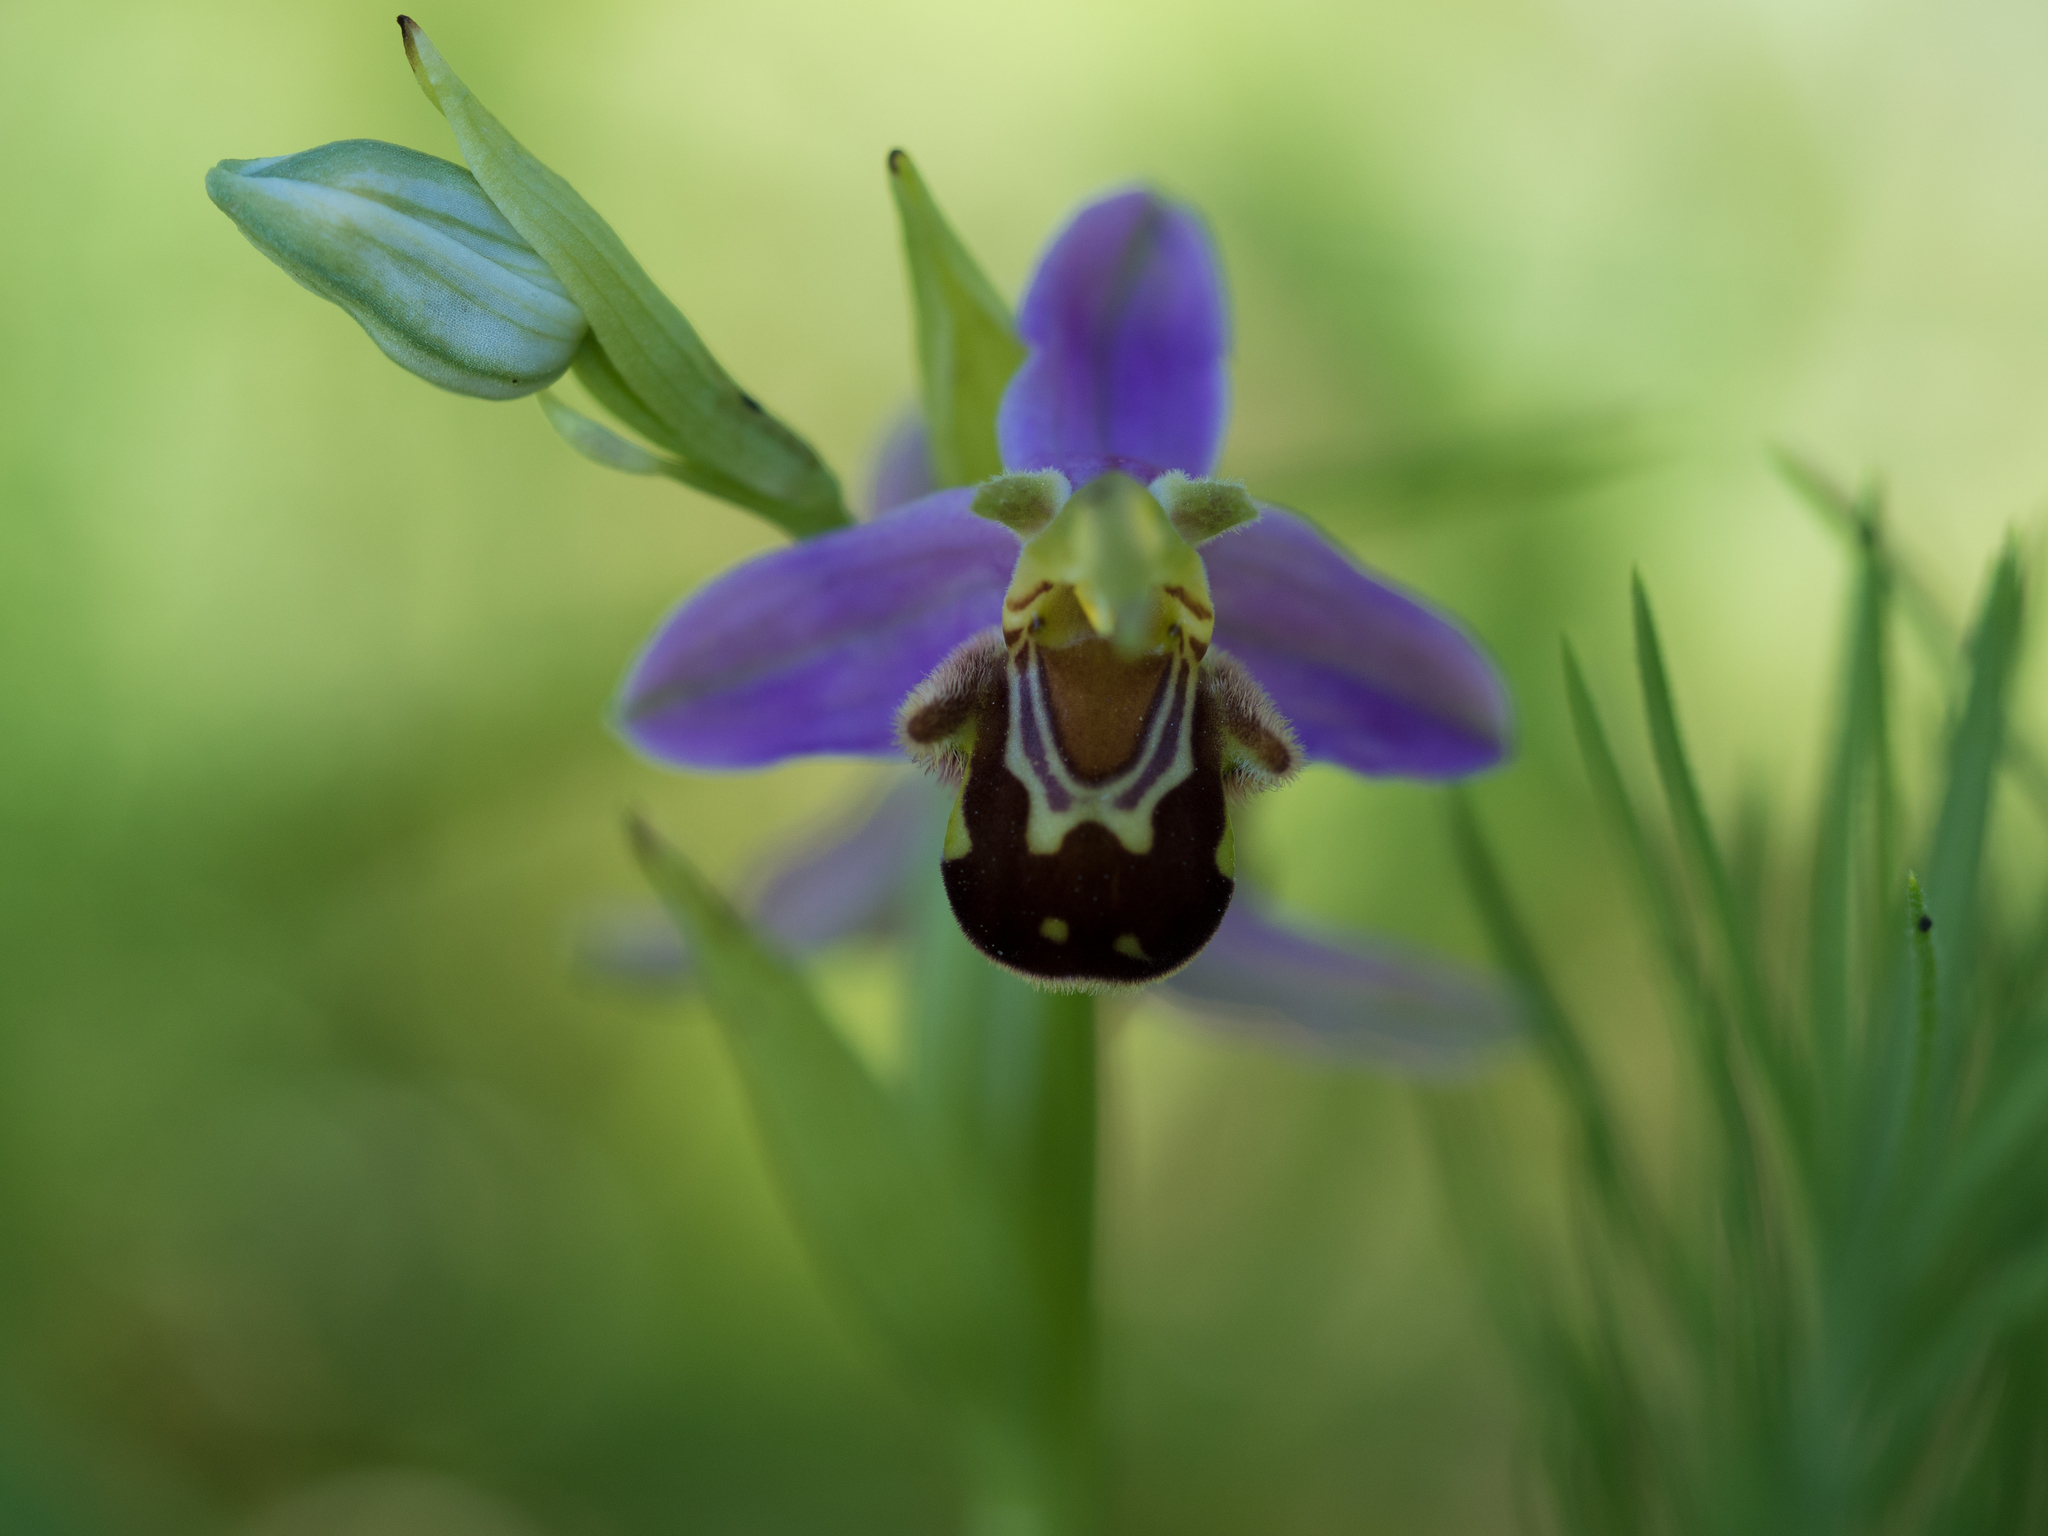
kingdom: Plantae
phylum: Tracheophyta
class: Liliopsida
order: Asparagales
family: Orchidaceae
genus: Ophrys
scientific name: Ophrys apifera
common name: Bee orchid
